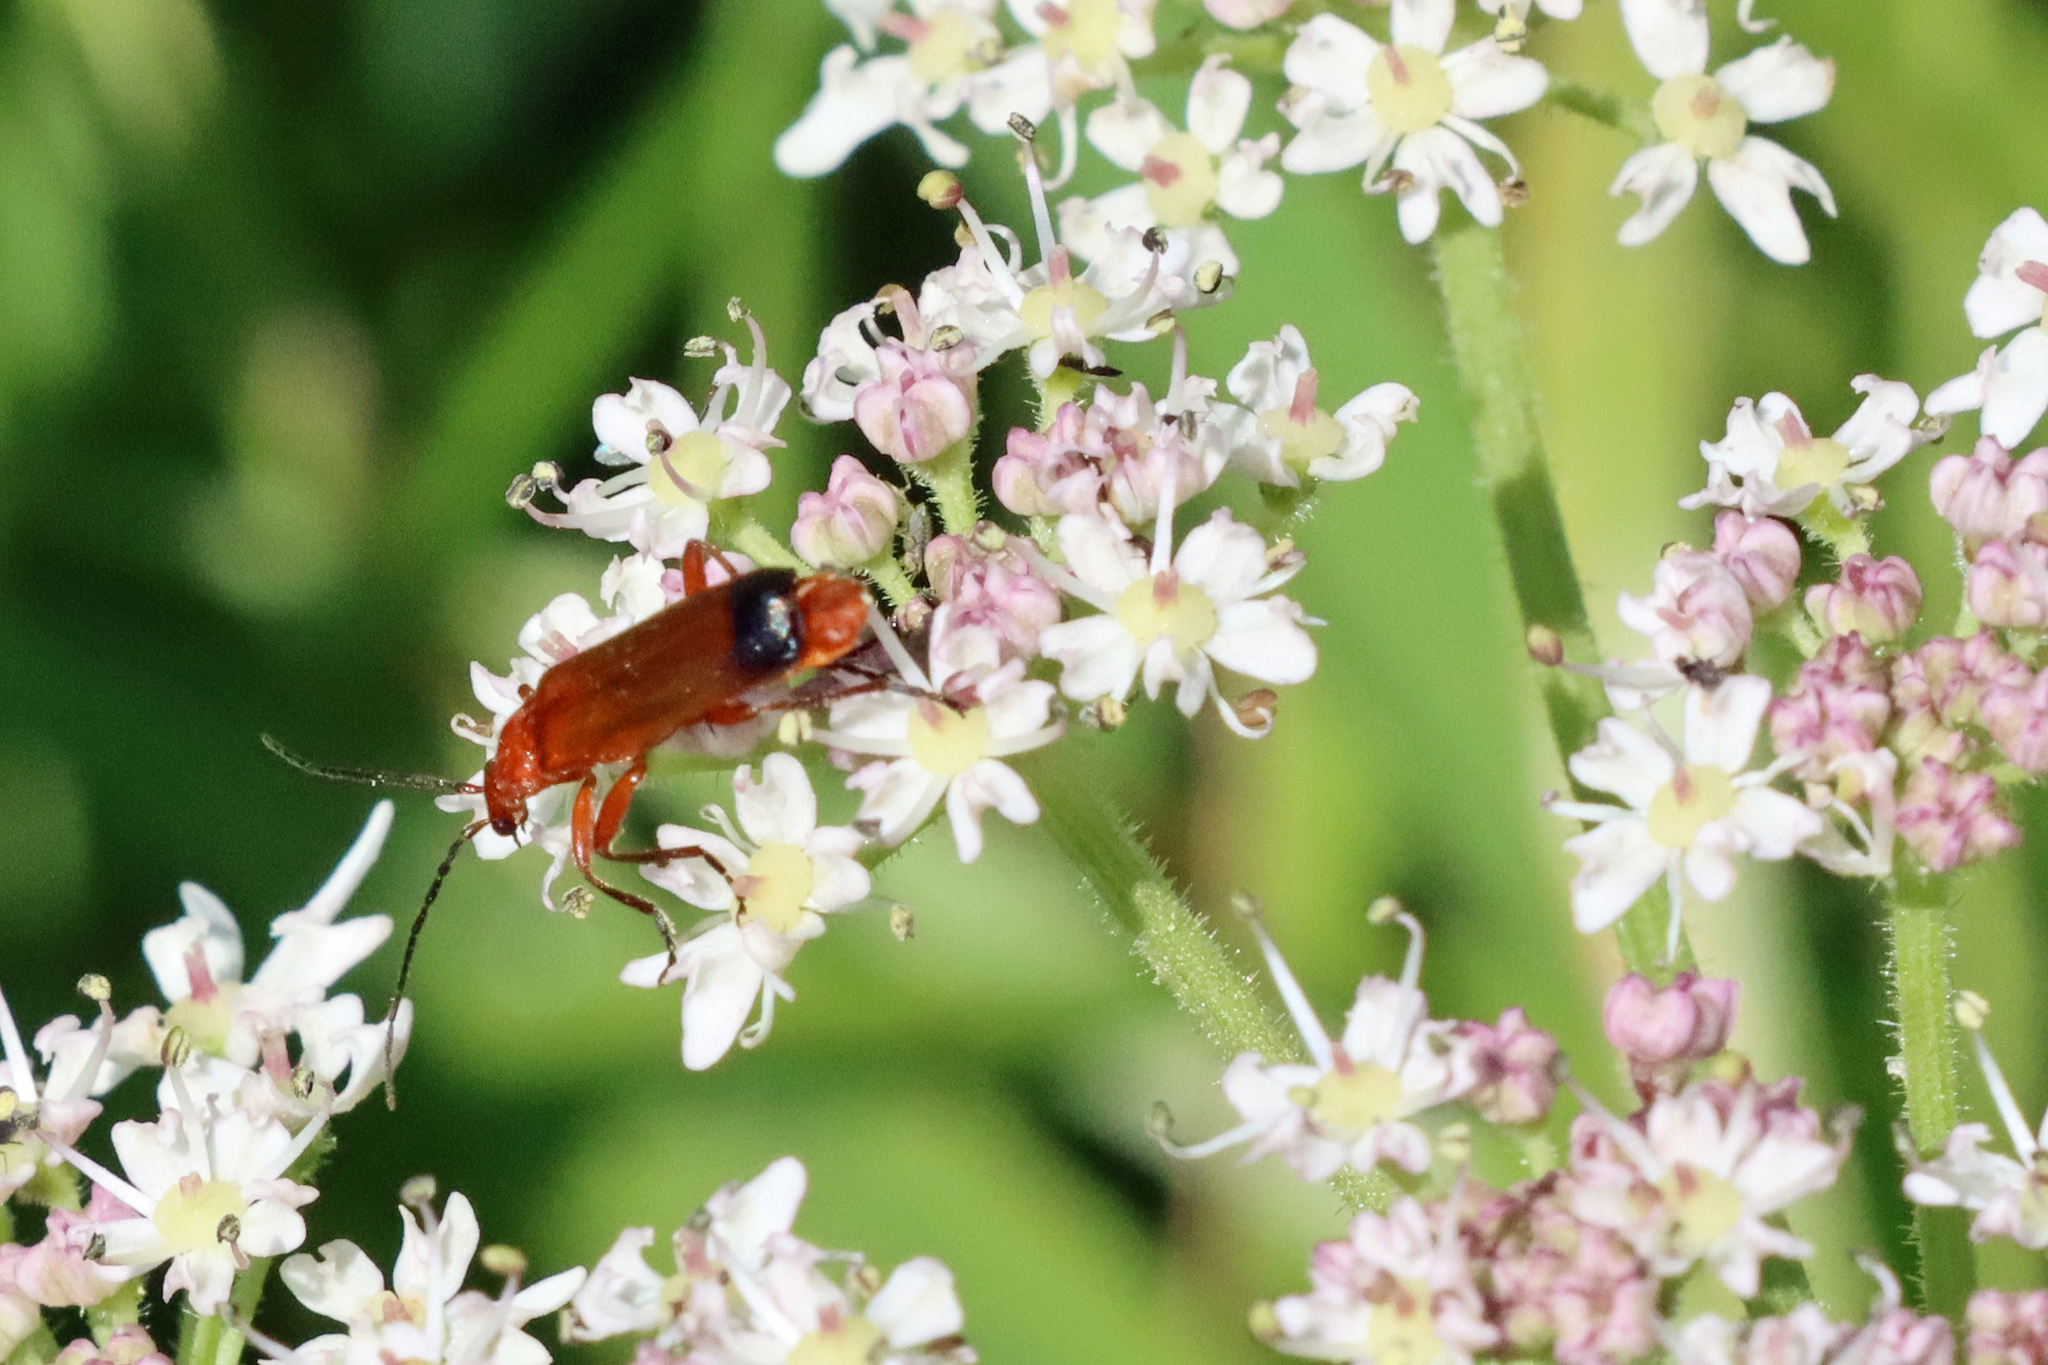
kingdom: Animalia
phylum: Arthropoda
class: Insecta
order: Coleoptera
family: Cantharidae
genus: Rhagonycha
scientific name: Rhagonycha fulva
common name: Common red soldier beetle
